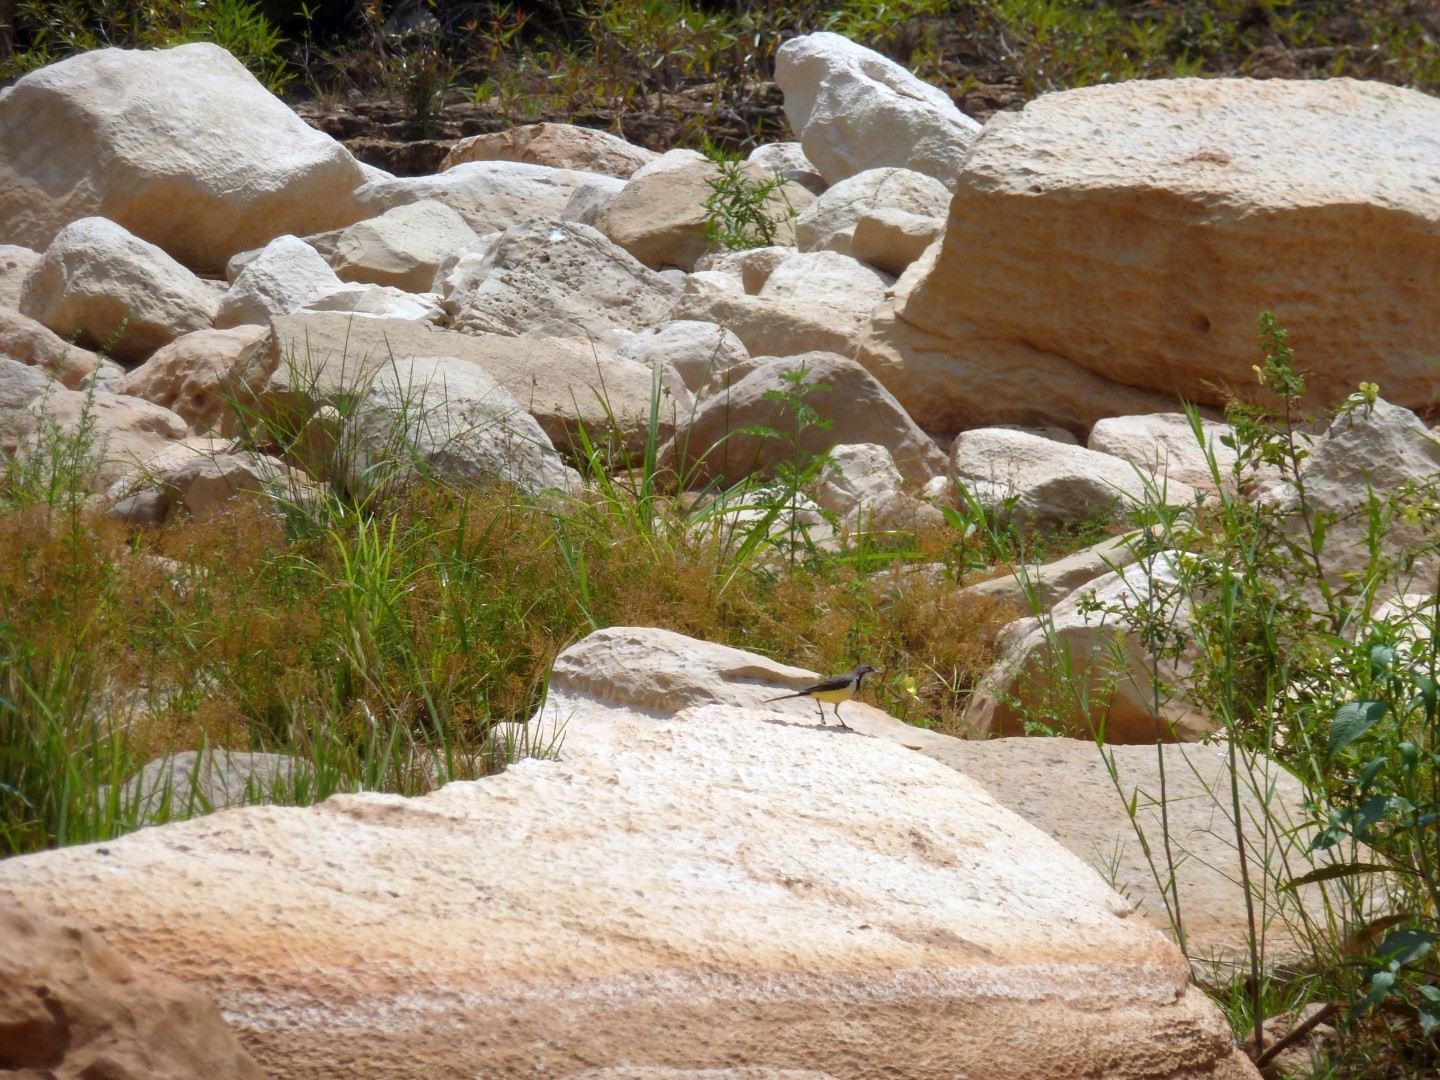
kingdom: Animalia
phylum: Chordata
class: Aves
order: Passeriformes
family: Motacillidae
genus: Motacilla
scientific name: Motacilla flaviventris
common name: Madagascar wagtail
